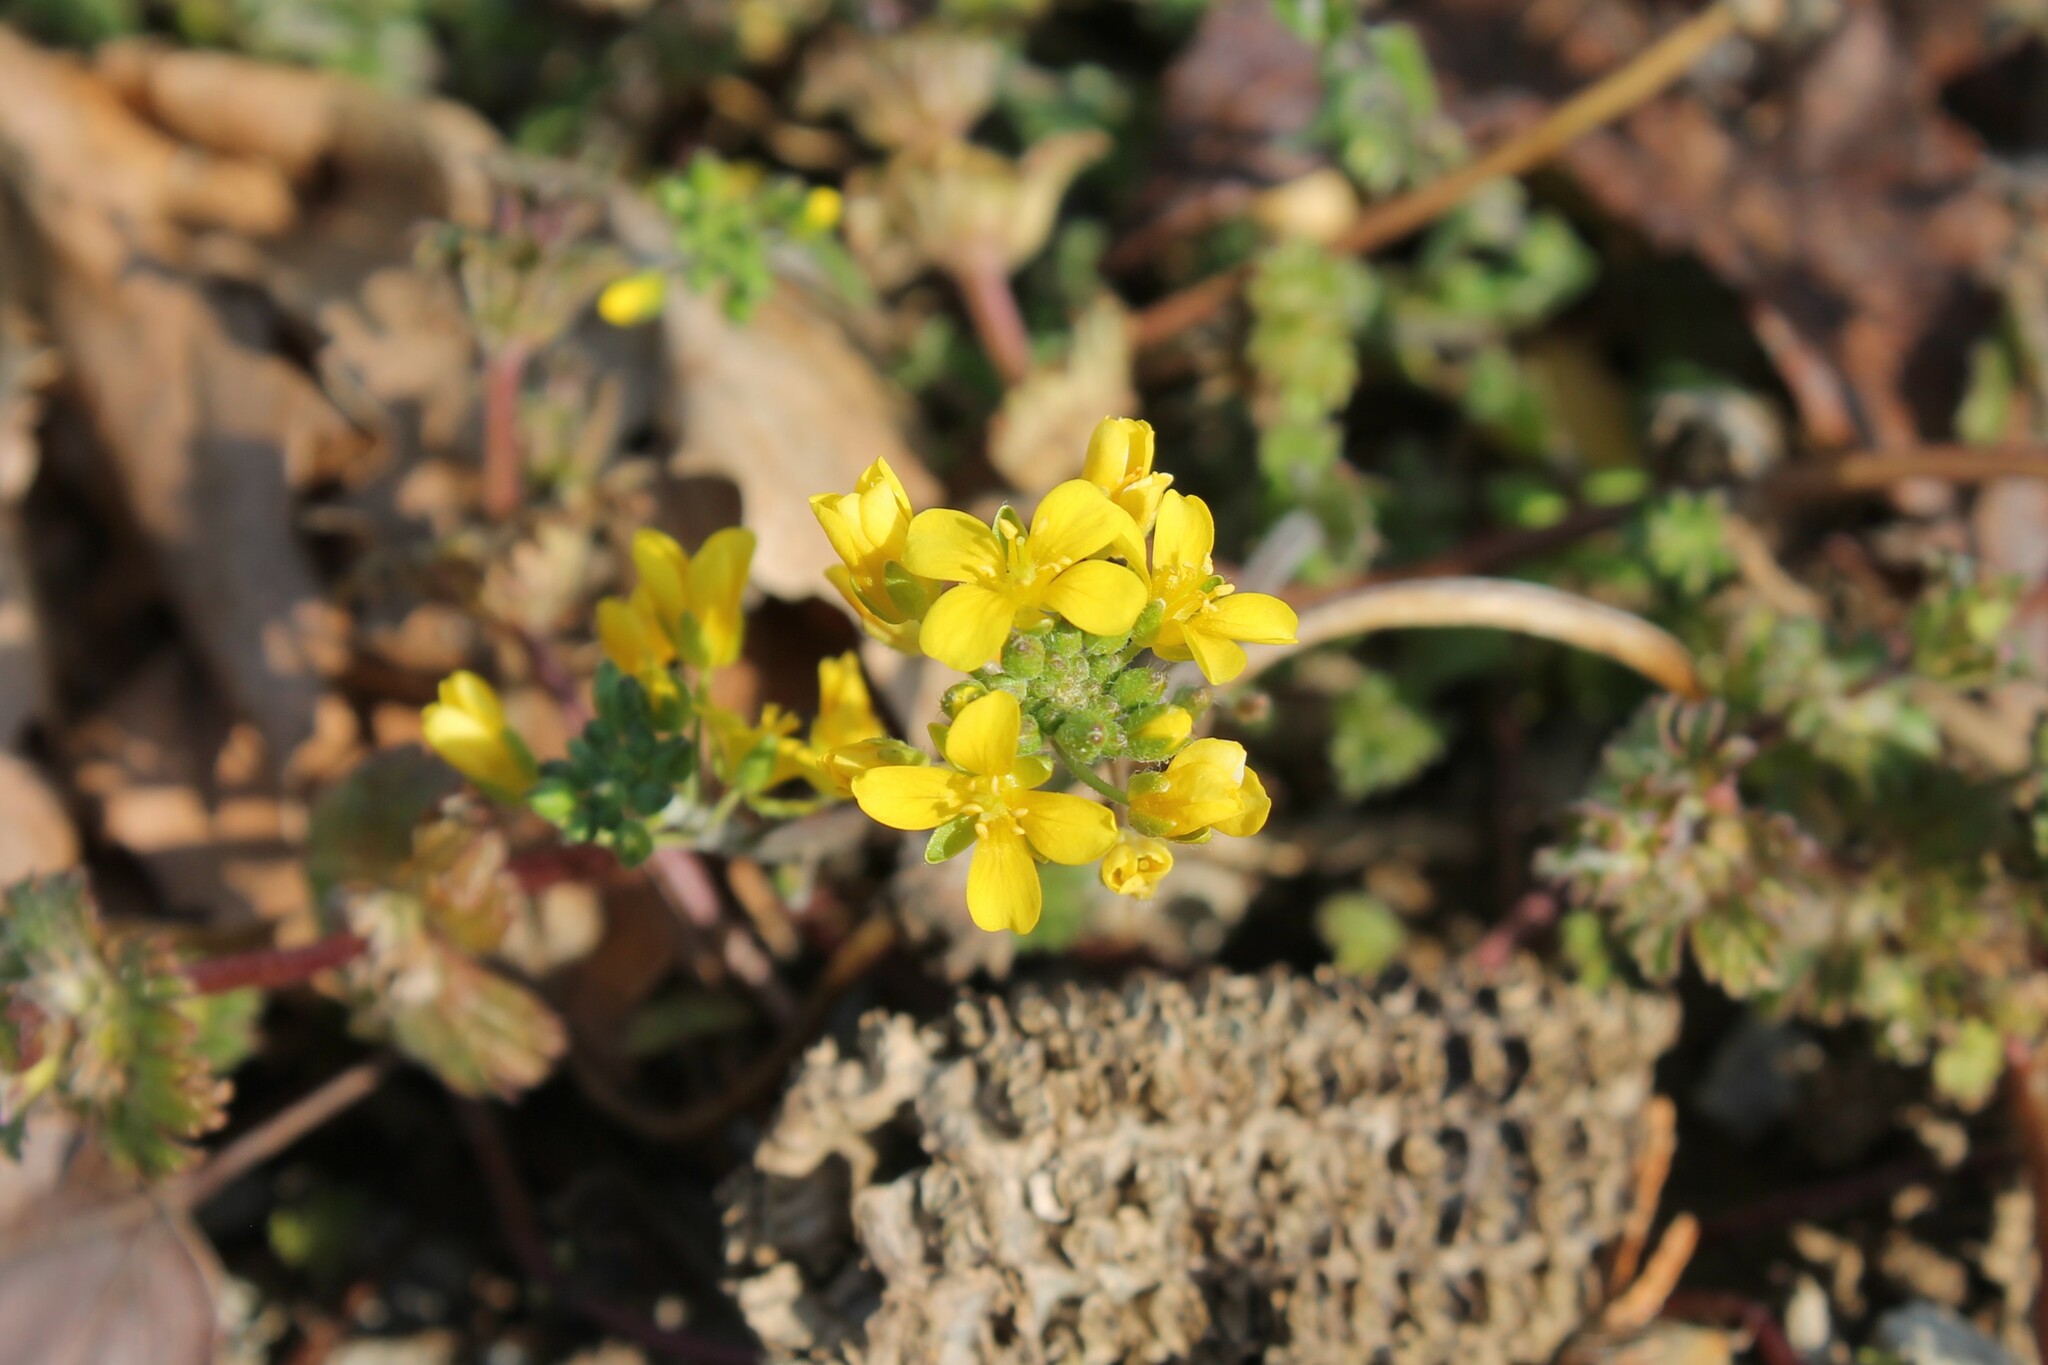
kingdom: Plantae
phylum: Tracheophyta
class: Magnoliopsida
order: Brassicales
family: Brassicaceae
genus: Paysonia
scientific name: Paysonia lescurii
